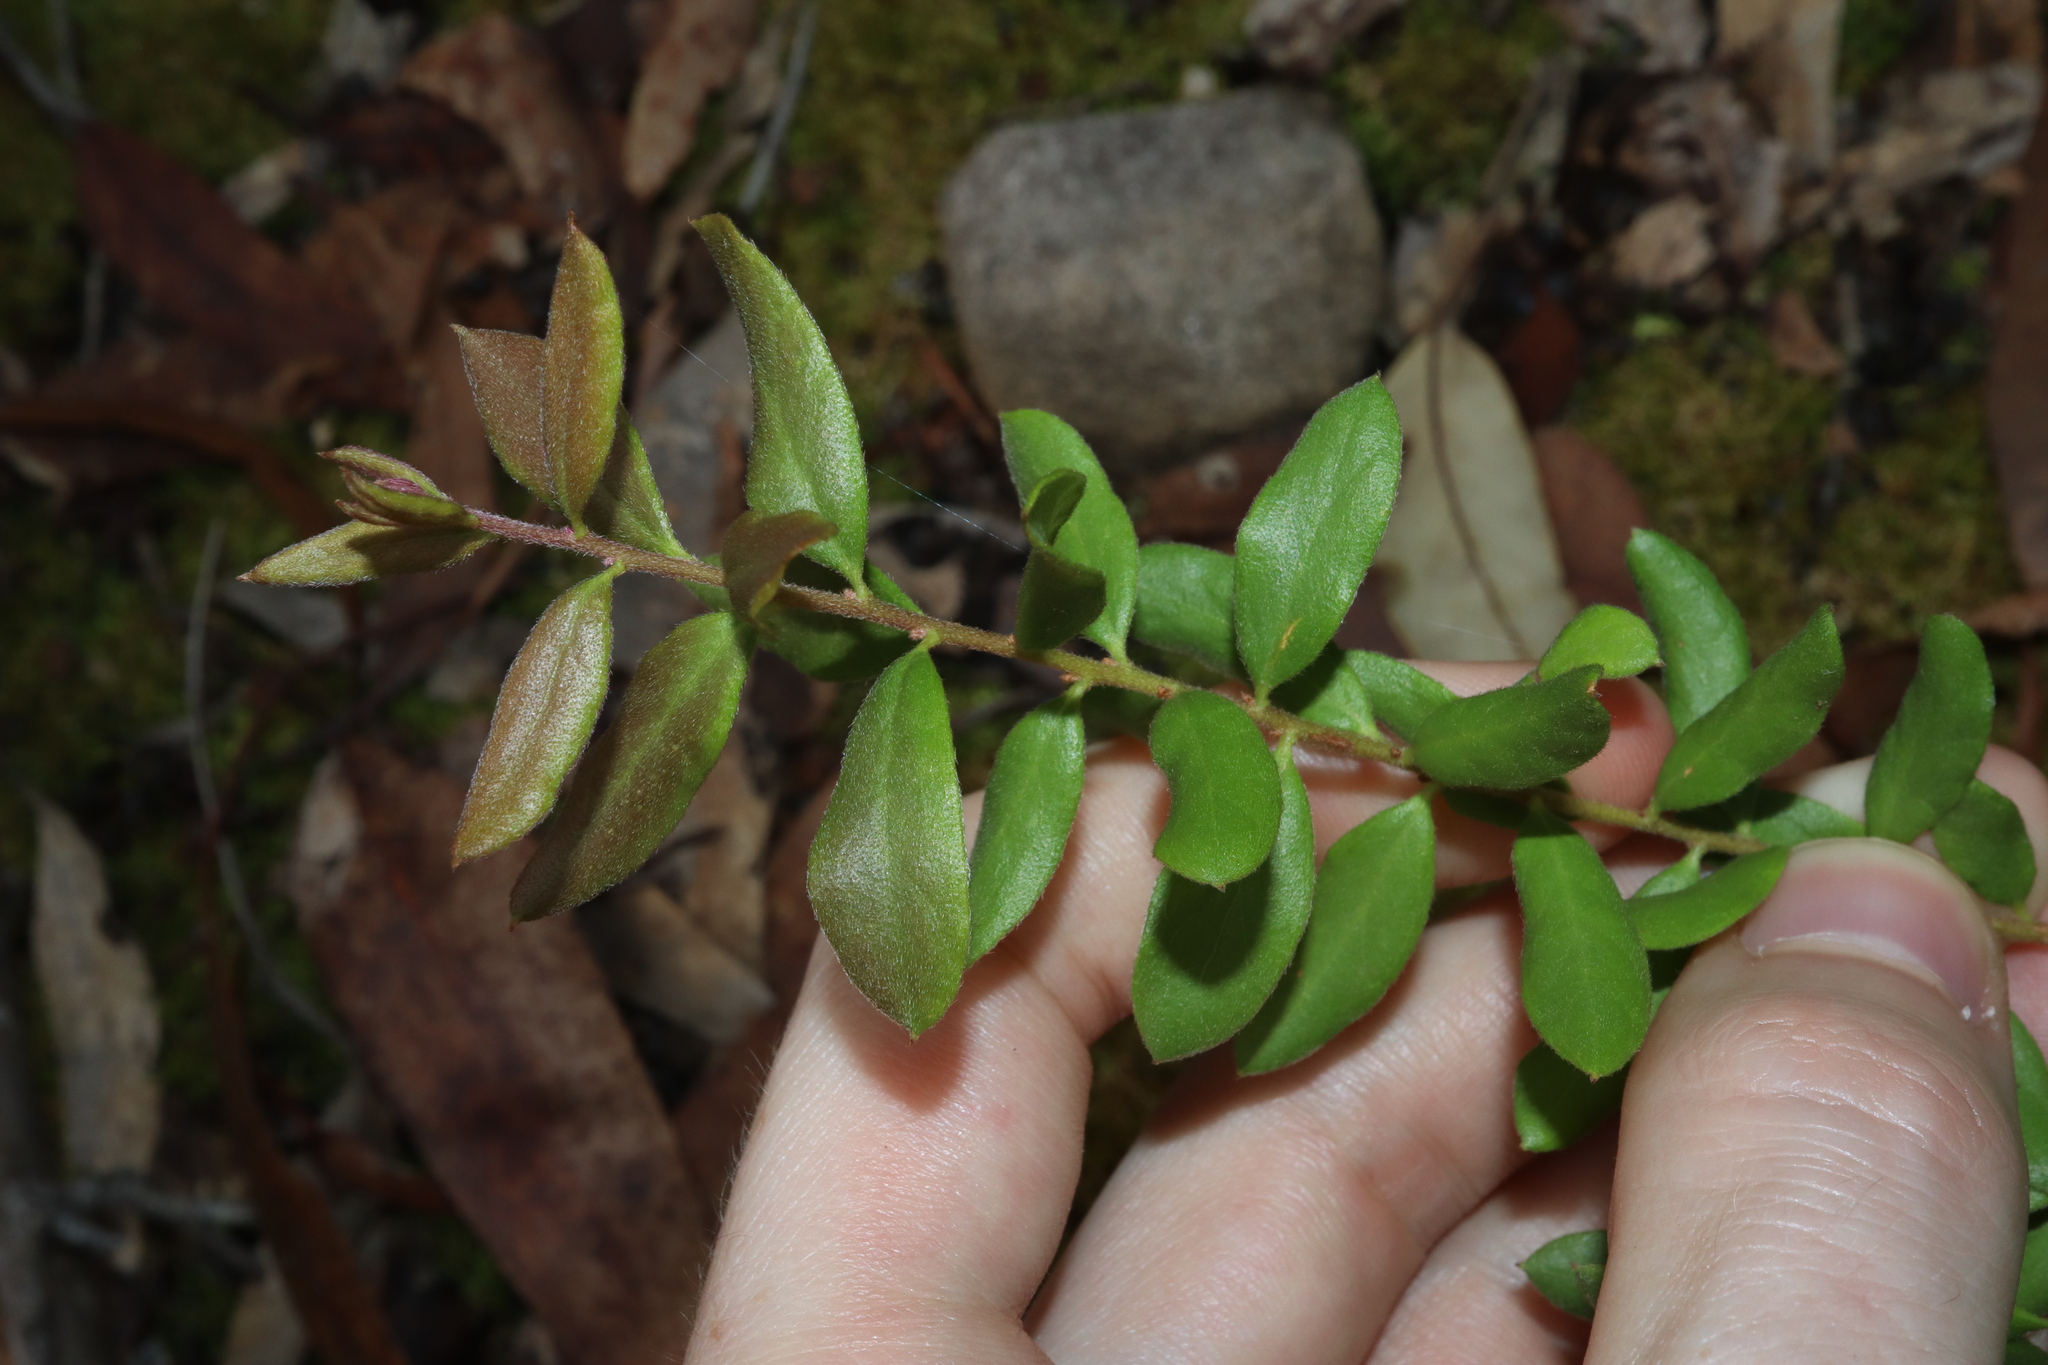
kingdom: Plantae
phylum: Tracheophyta
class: Magnoliopsida
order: Proteales
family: Proteaceae
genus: Grevillea
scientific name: Grevillea mucronulata
